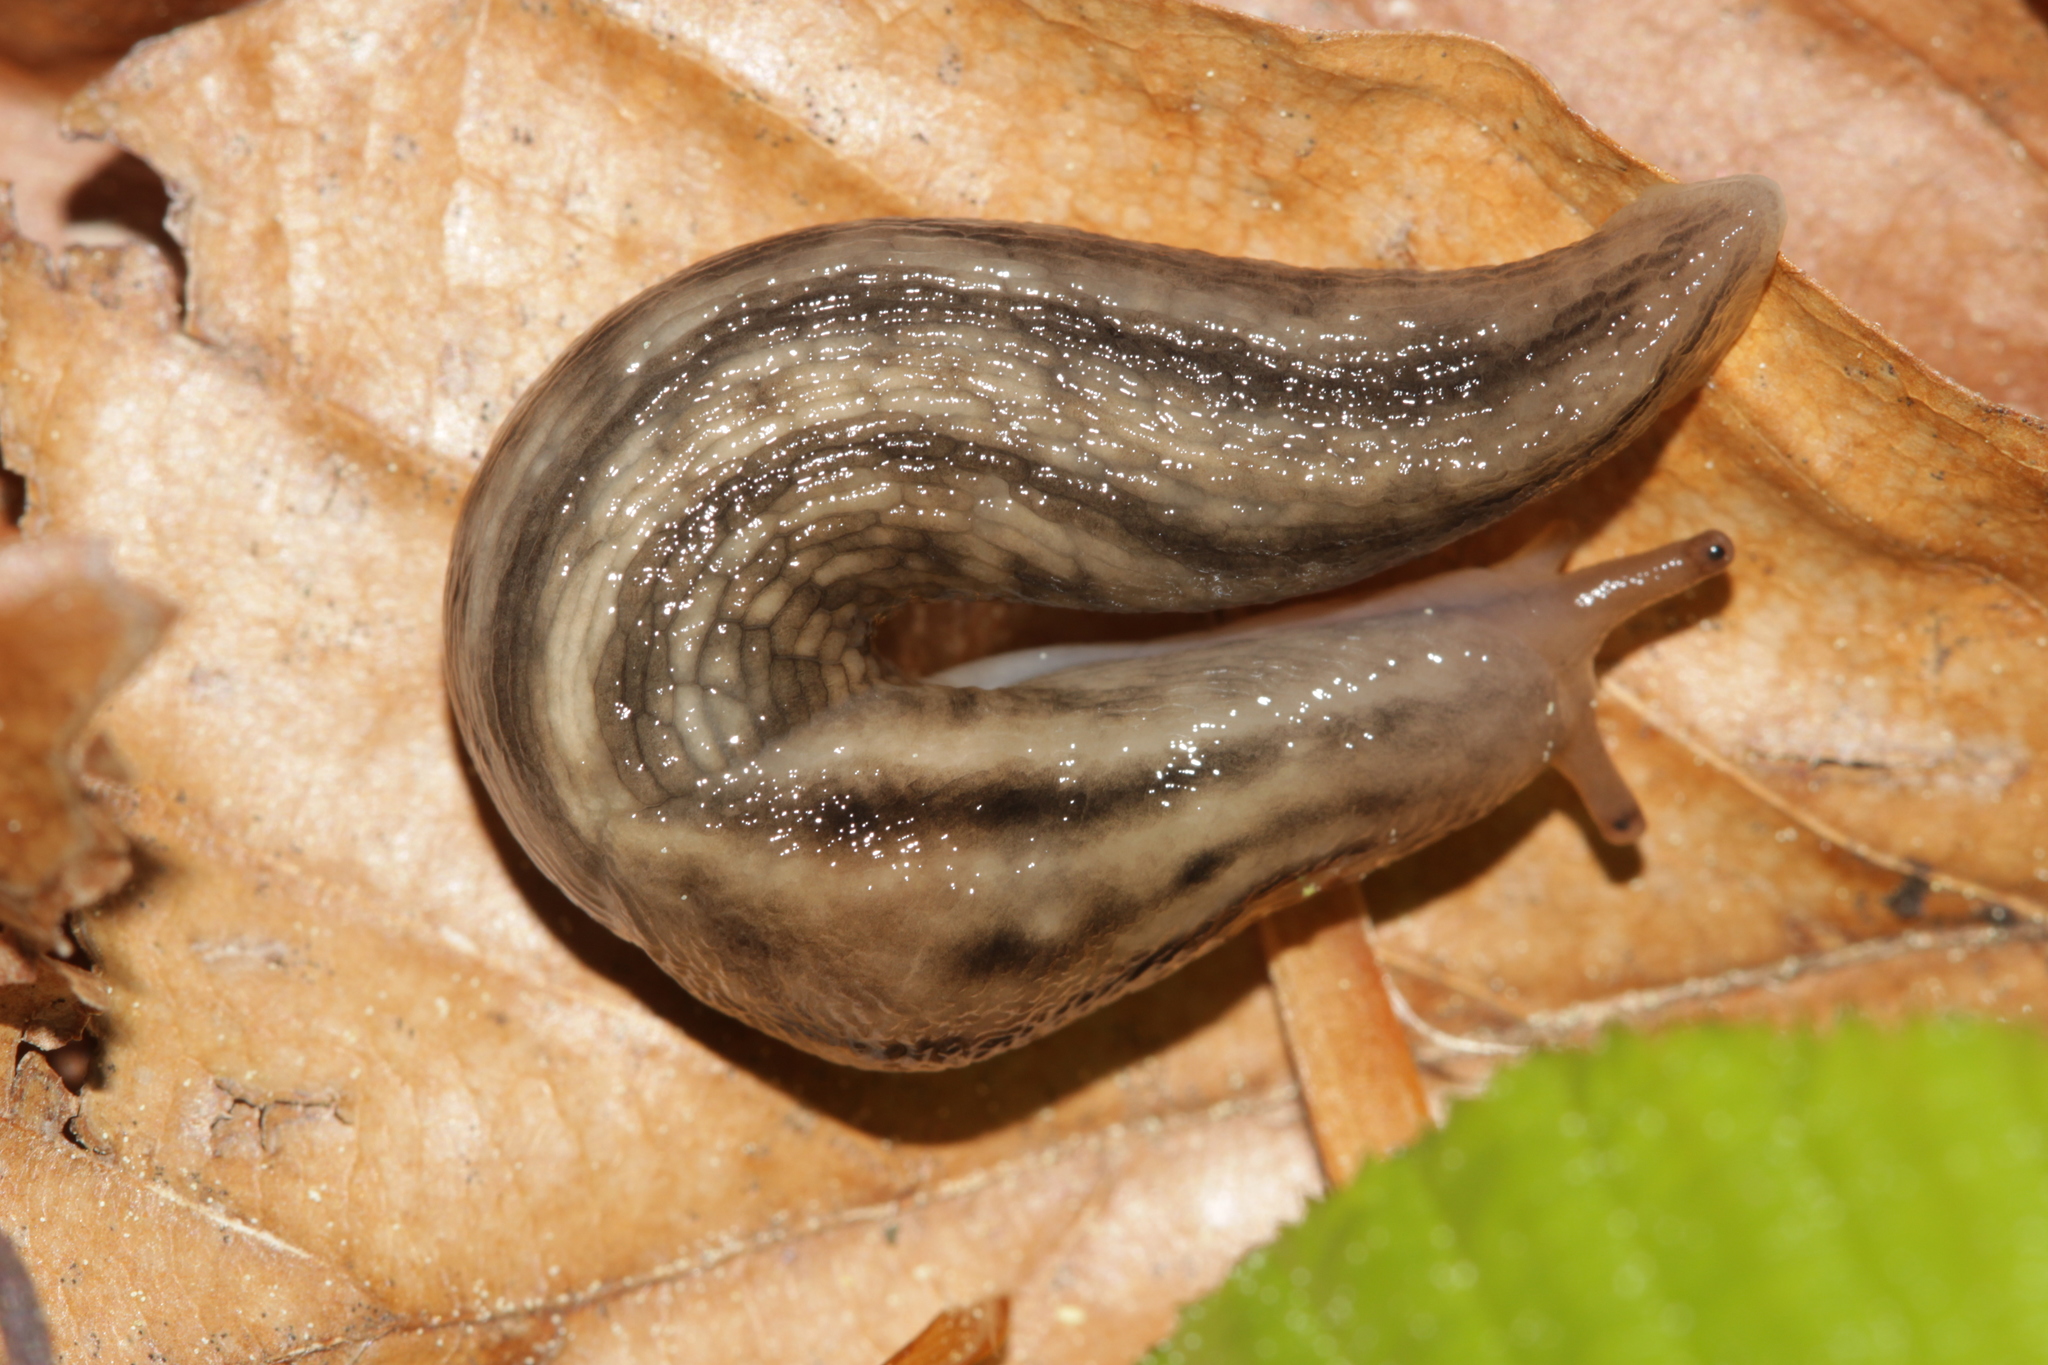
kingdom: Animalia
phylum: Mollusca
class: Gastropoda
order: Stylommatophora
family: Limacidae
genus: Lehmannia
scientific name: Lehmannia marginata
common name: Tree slug
